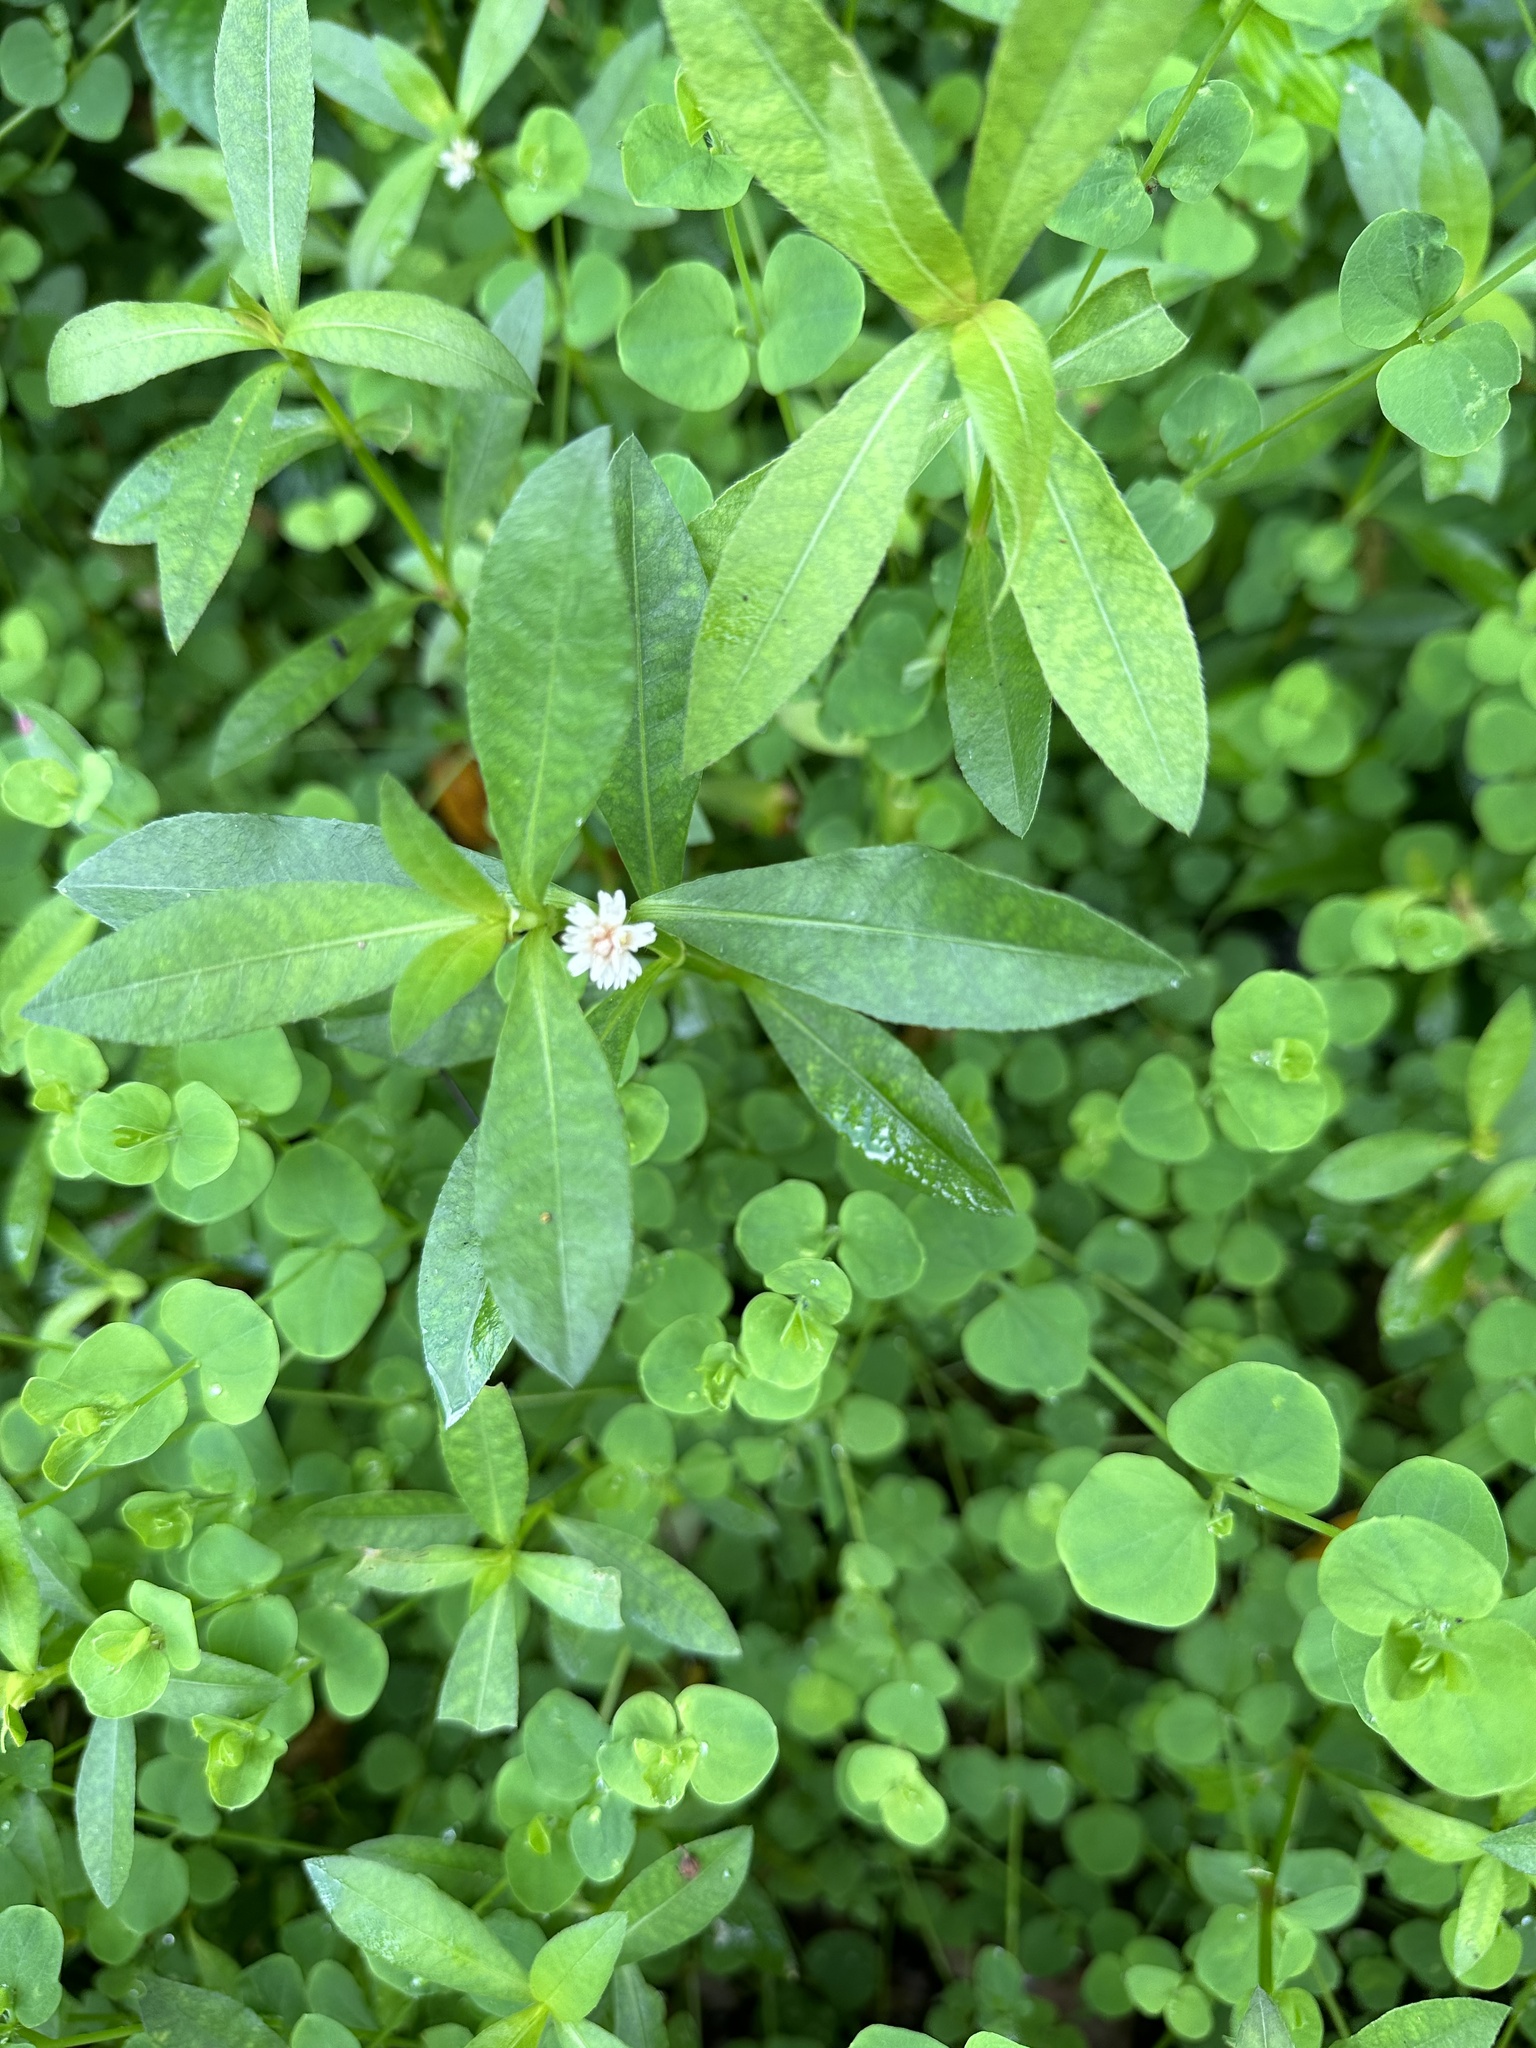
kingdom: Plantae
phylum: Tracheophyta
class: Magnoliopsida
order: Caryophyllales
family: Amaranthaceae
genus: Alternanthera
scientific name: Alternanthera philoxeroides
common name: Alligatorweed
